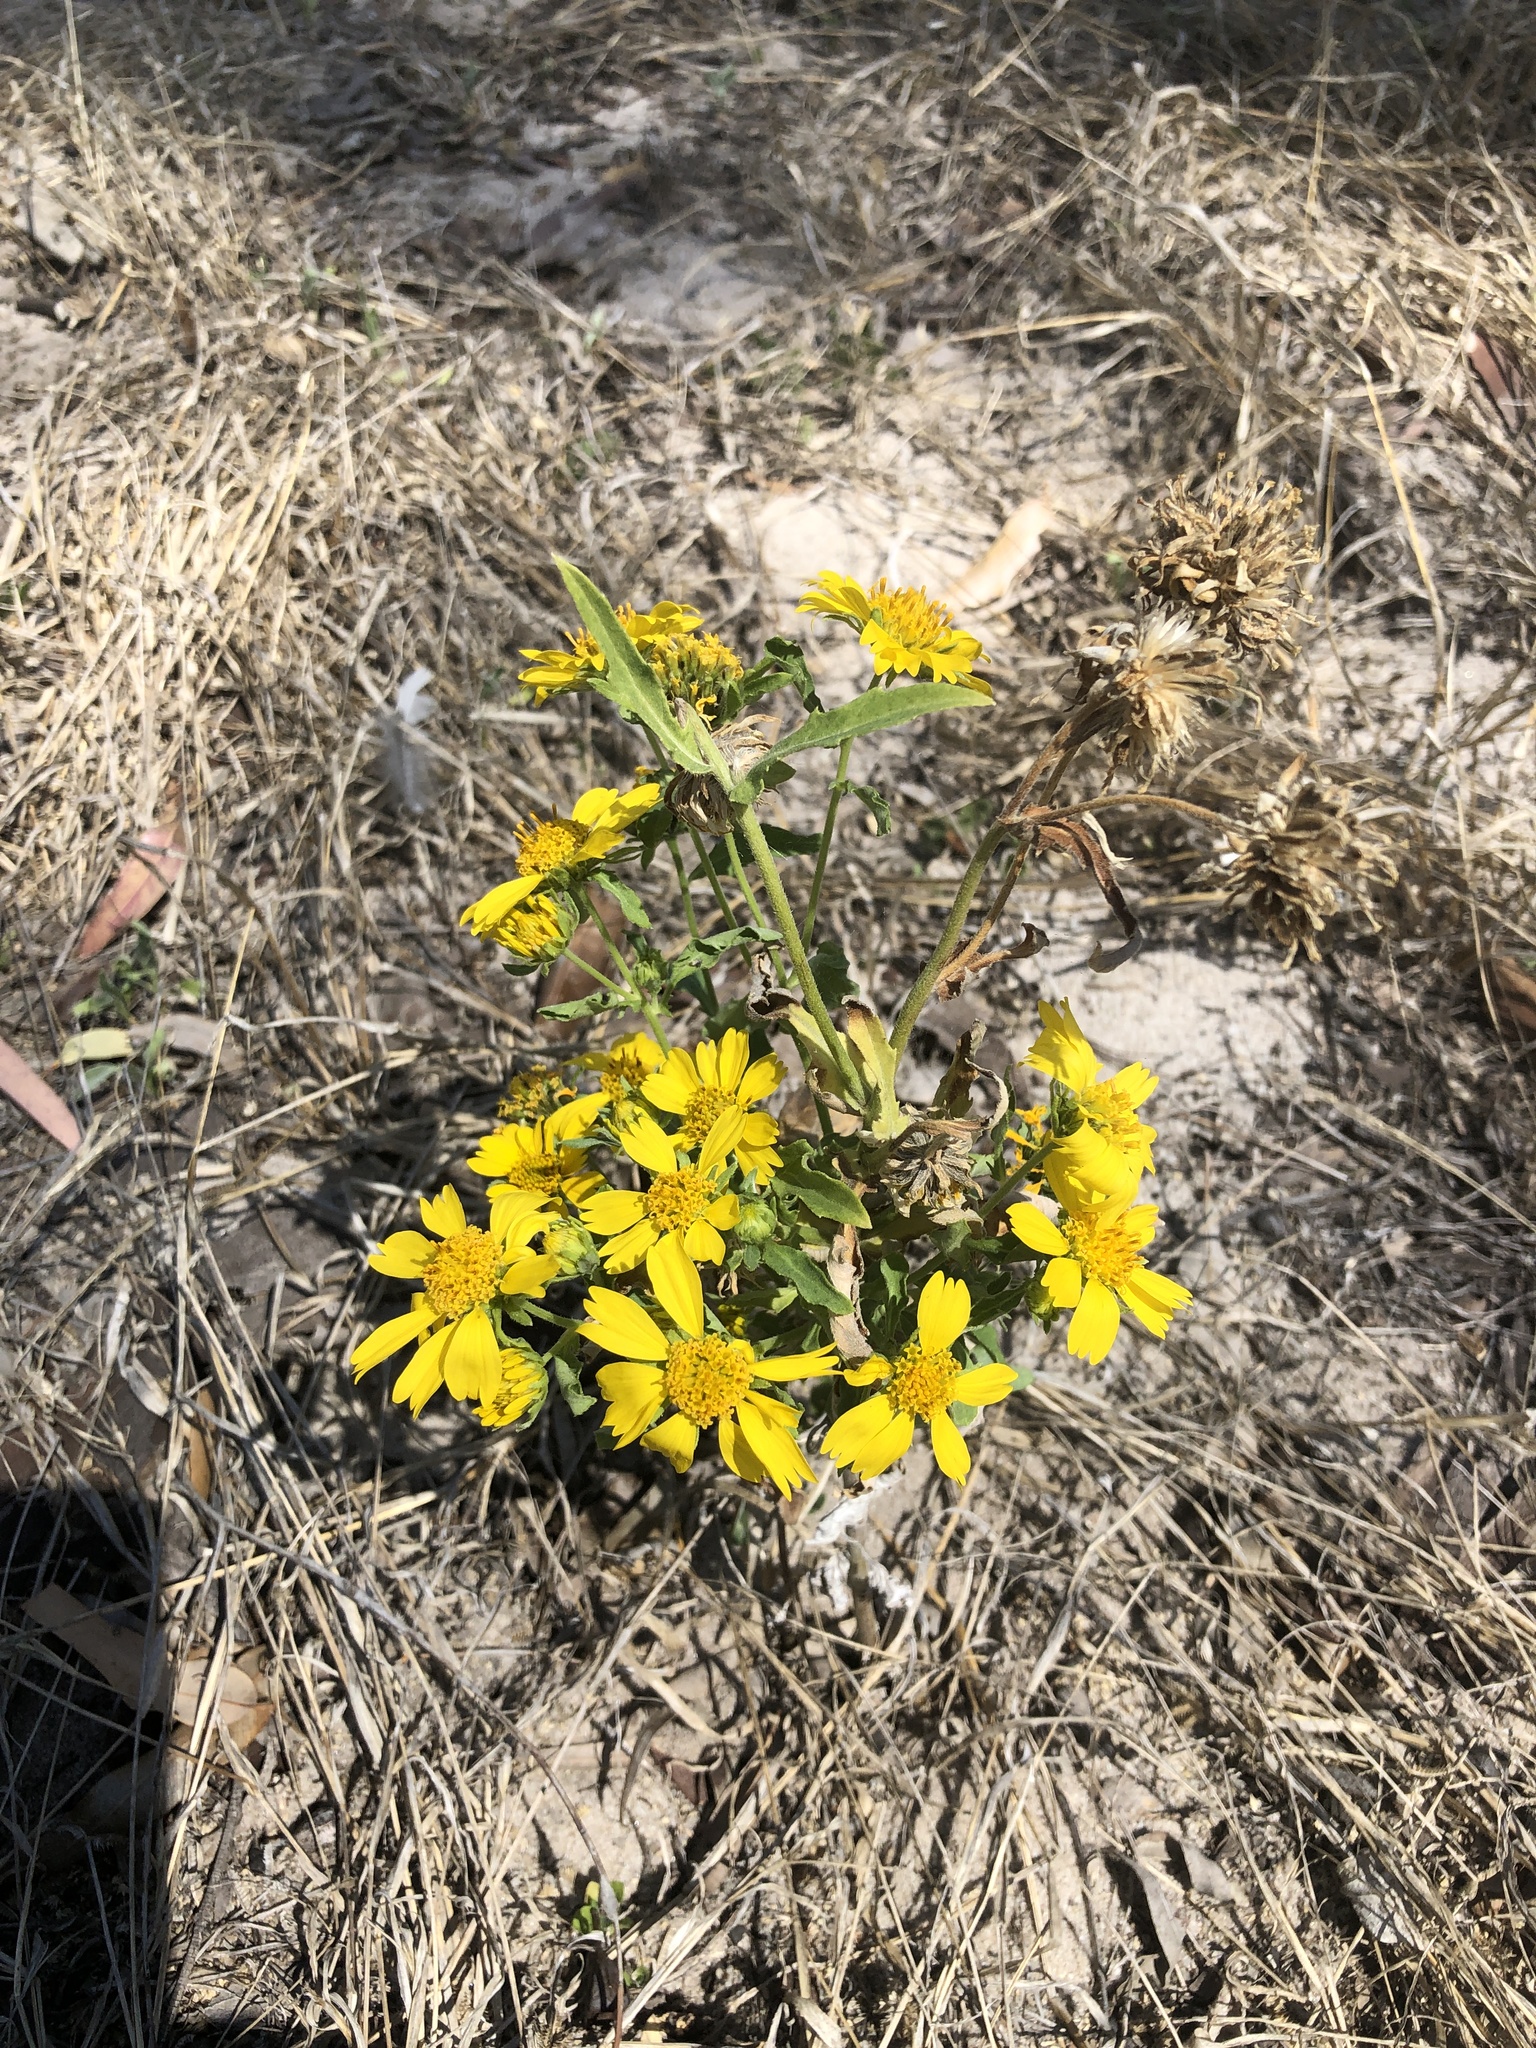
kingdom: Plantae
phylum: Tracheophyta
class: Magnoliopsida
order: Asterales
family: Asteraceae
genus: Verbesina
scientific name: Verbesina encelioides
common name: Golden crownbeard
